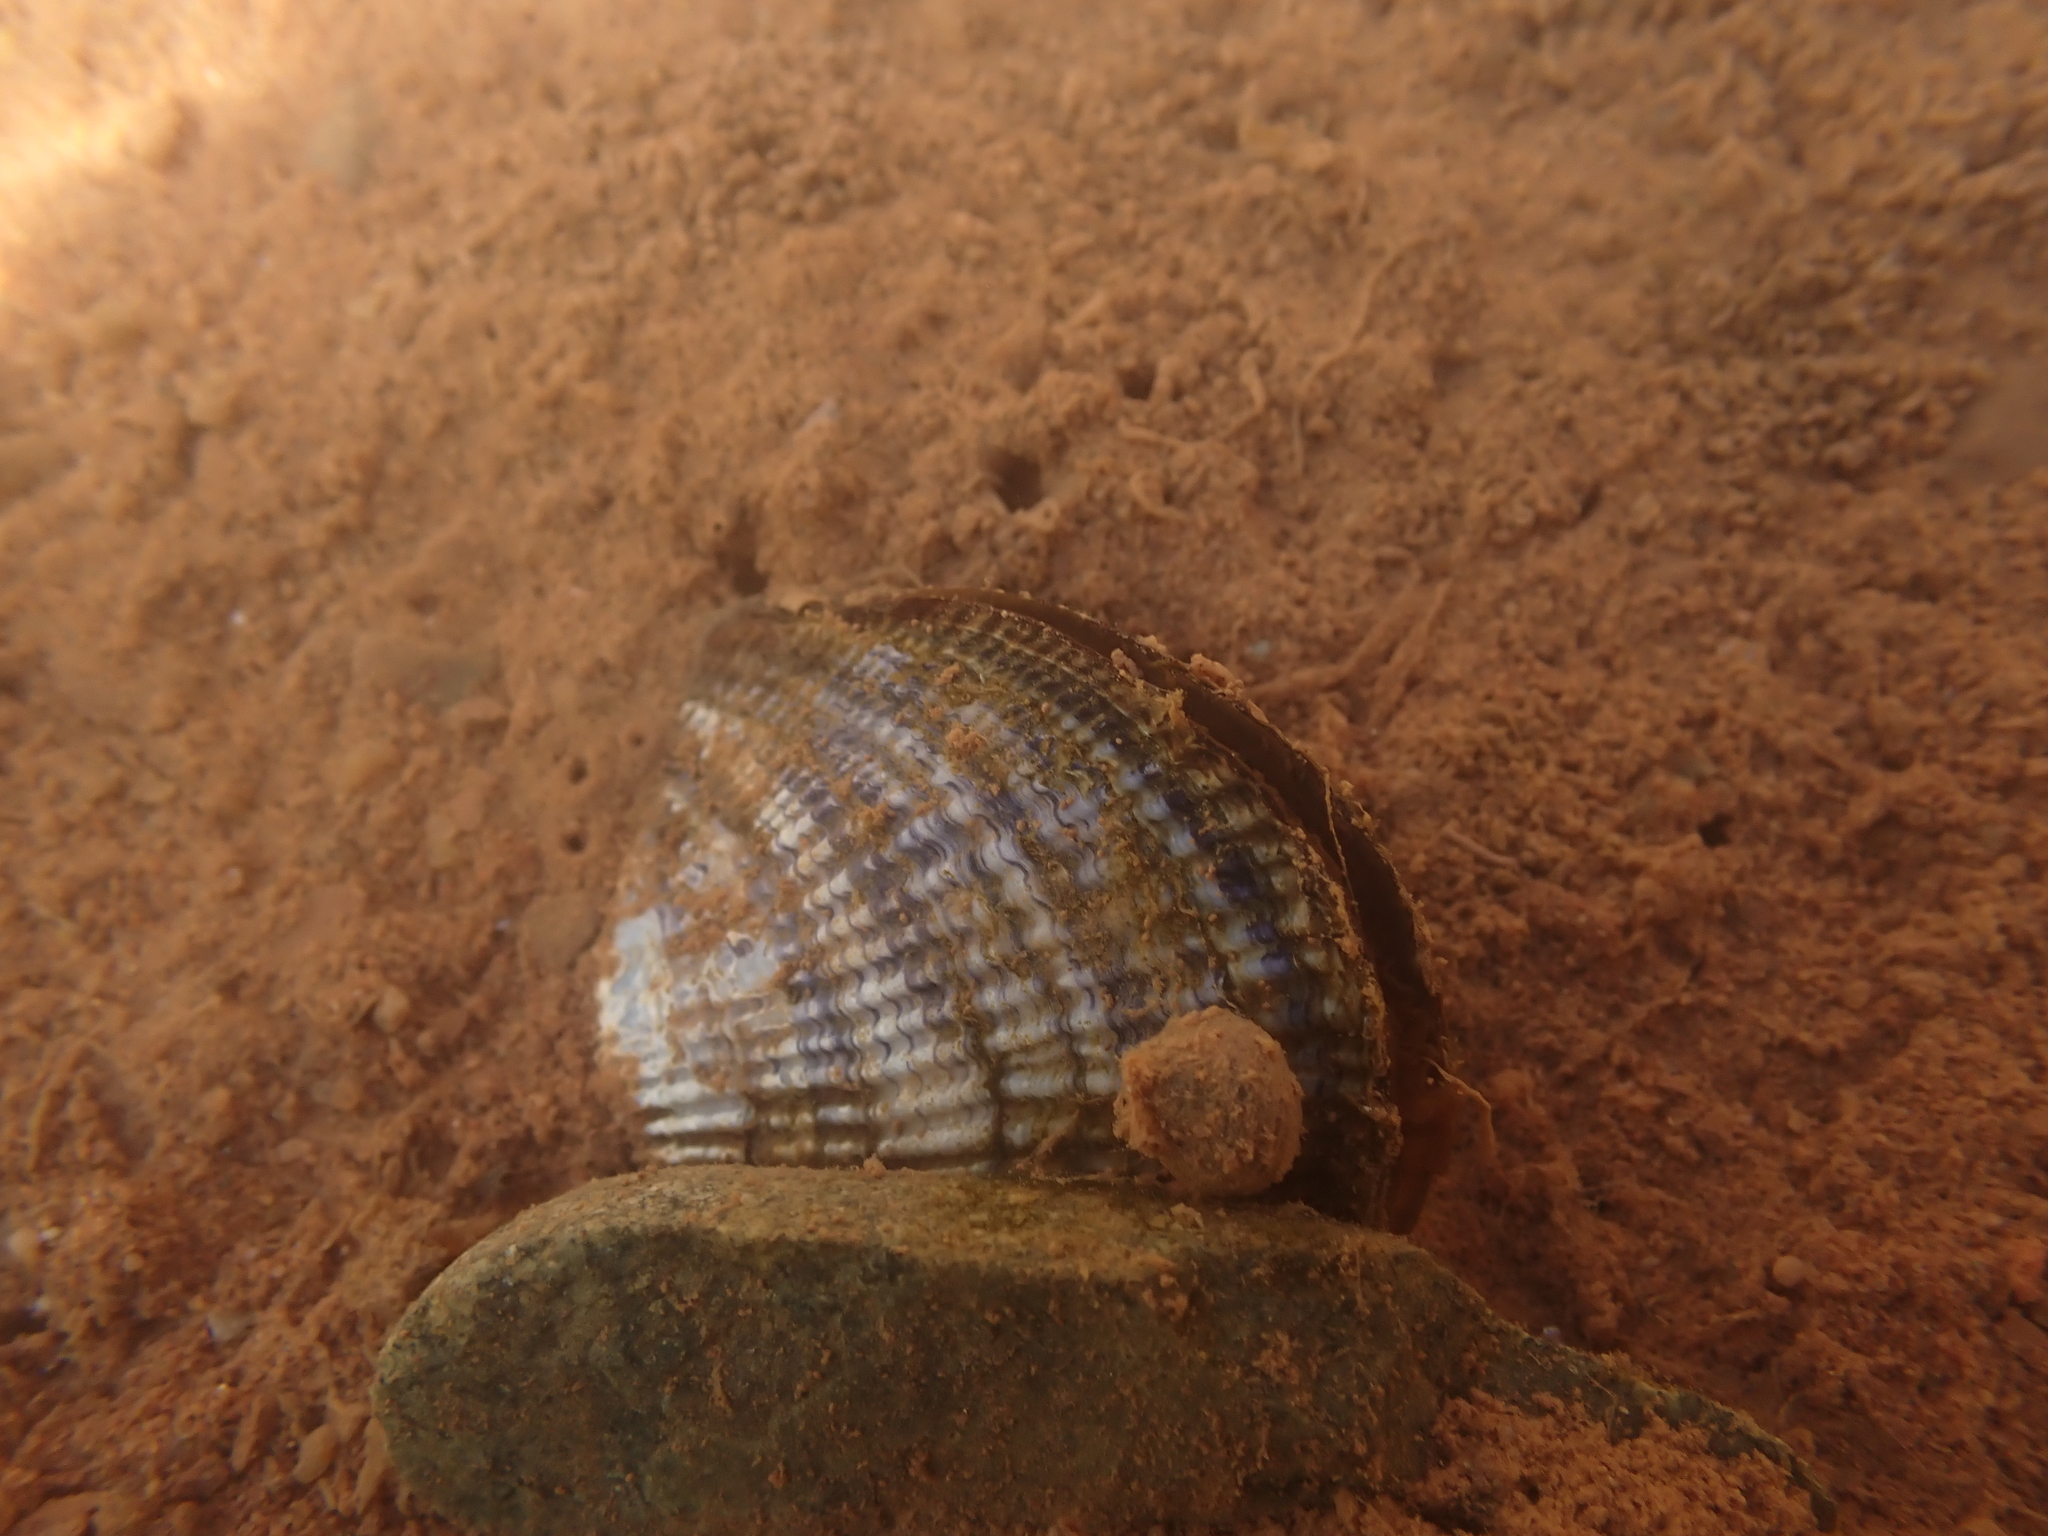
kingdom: Animalia
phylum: Mollusca
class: Bivalvia
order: Mytilida
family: Mytilidae
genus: Geukensia
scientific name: Geukensia demissa
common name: Ribbed mussel
